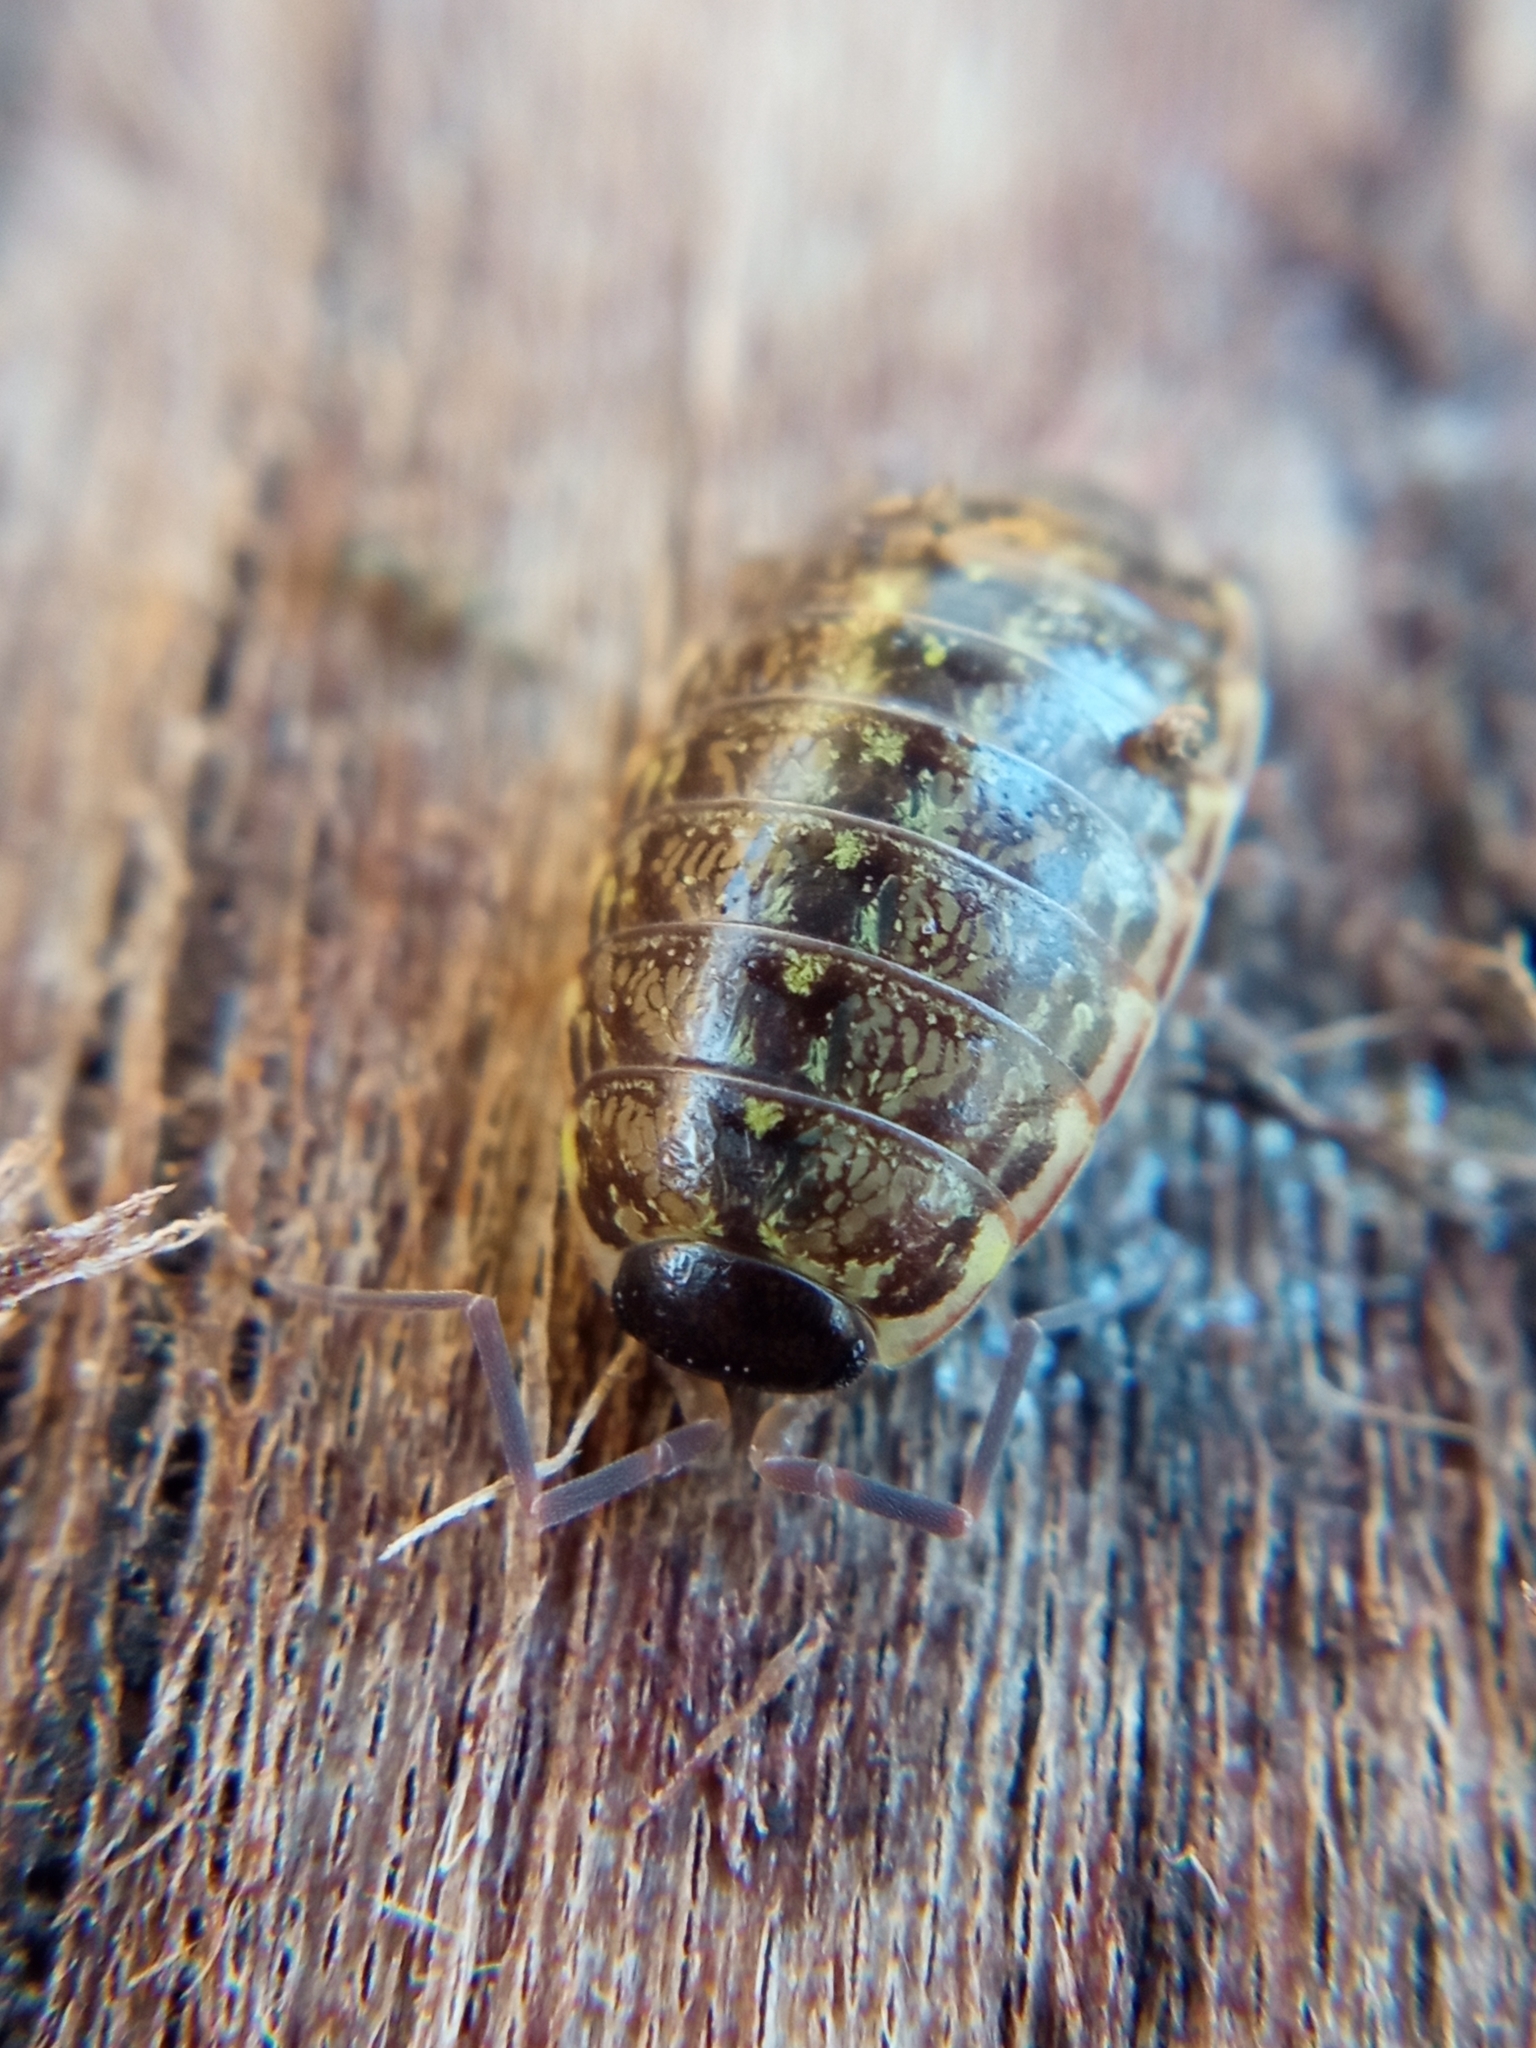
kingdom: Animalia
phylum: Arthropoda
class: Malacostraca
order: Isopoda
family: Philosciidae
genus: Philoscia
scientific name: Philoscia muscorum
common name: Common striped woodlouse
